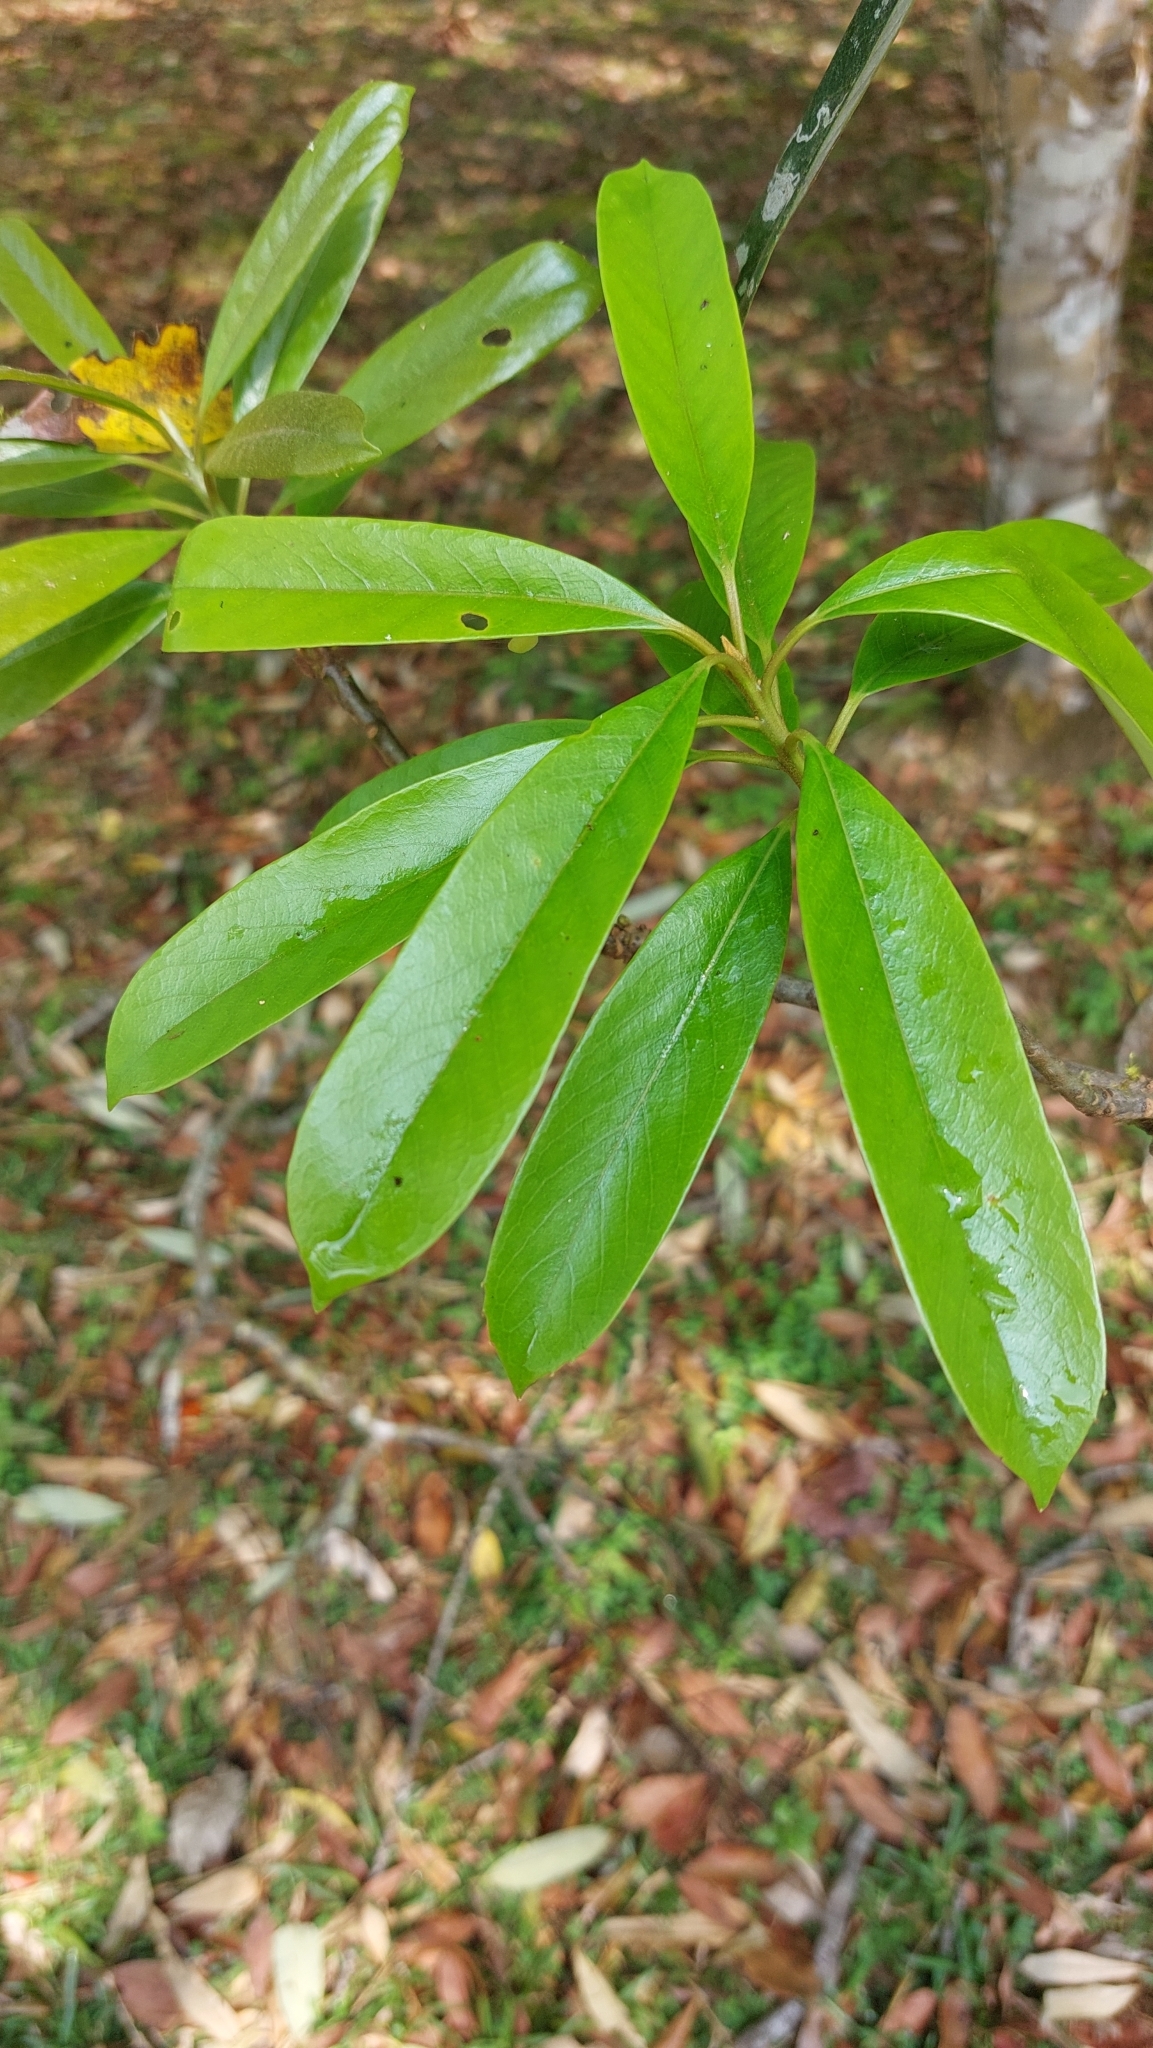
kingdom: Plantae
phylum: Tracheophyta
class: Magnoliopsida
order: Ericales
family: Symplocaceae
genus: Symplocos
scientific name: Symplocos glauca
